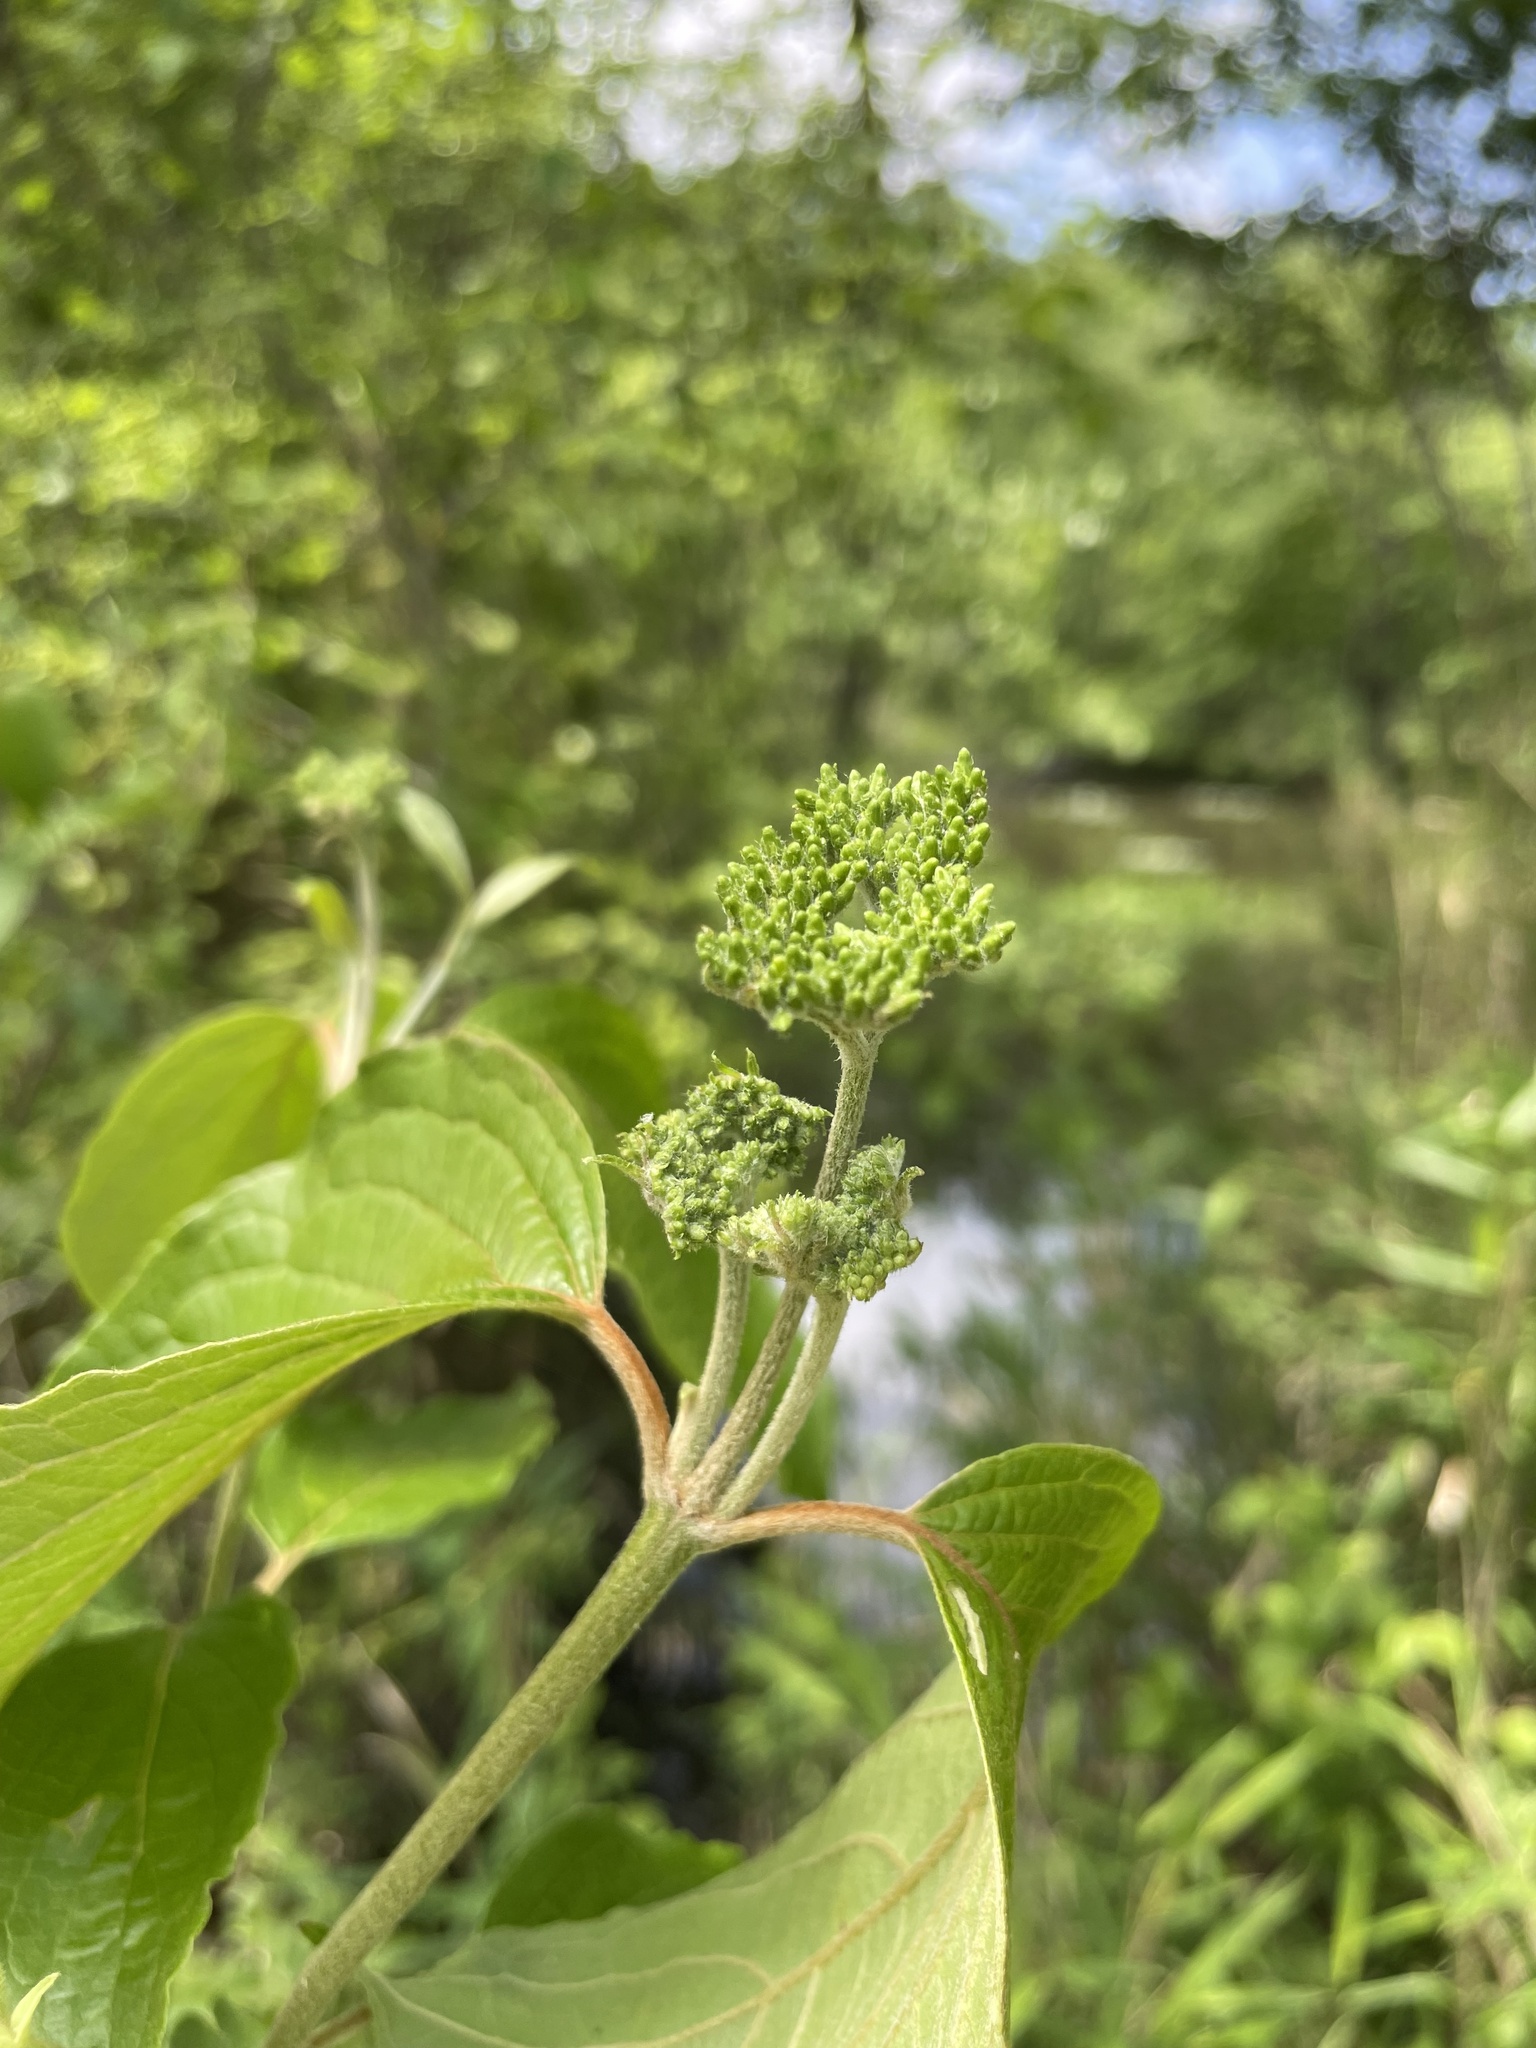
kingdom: Plantae
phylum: Tracheophyta
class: Magnoliopsida
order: Cornales
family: Cornaceae
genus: Cornus
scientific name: Cornus amomum
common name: Silky dogwood
